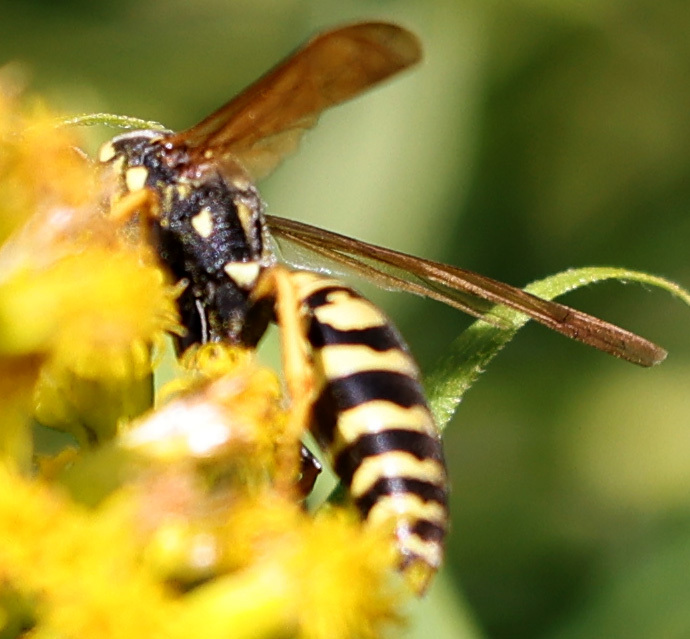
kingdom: Animalia
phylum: Arthropoda
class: Insecta
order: Hymenoptera
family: Eumenidae
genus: Polistes
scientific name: Polistes dominula
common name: Paper wasp
